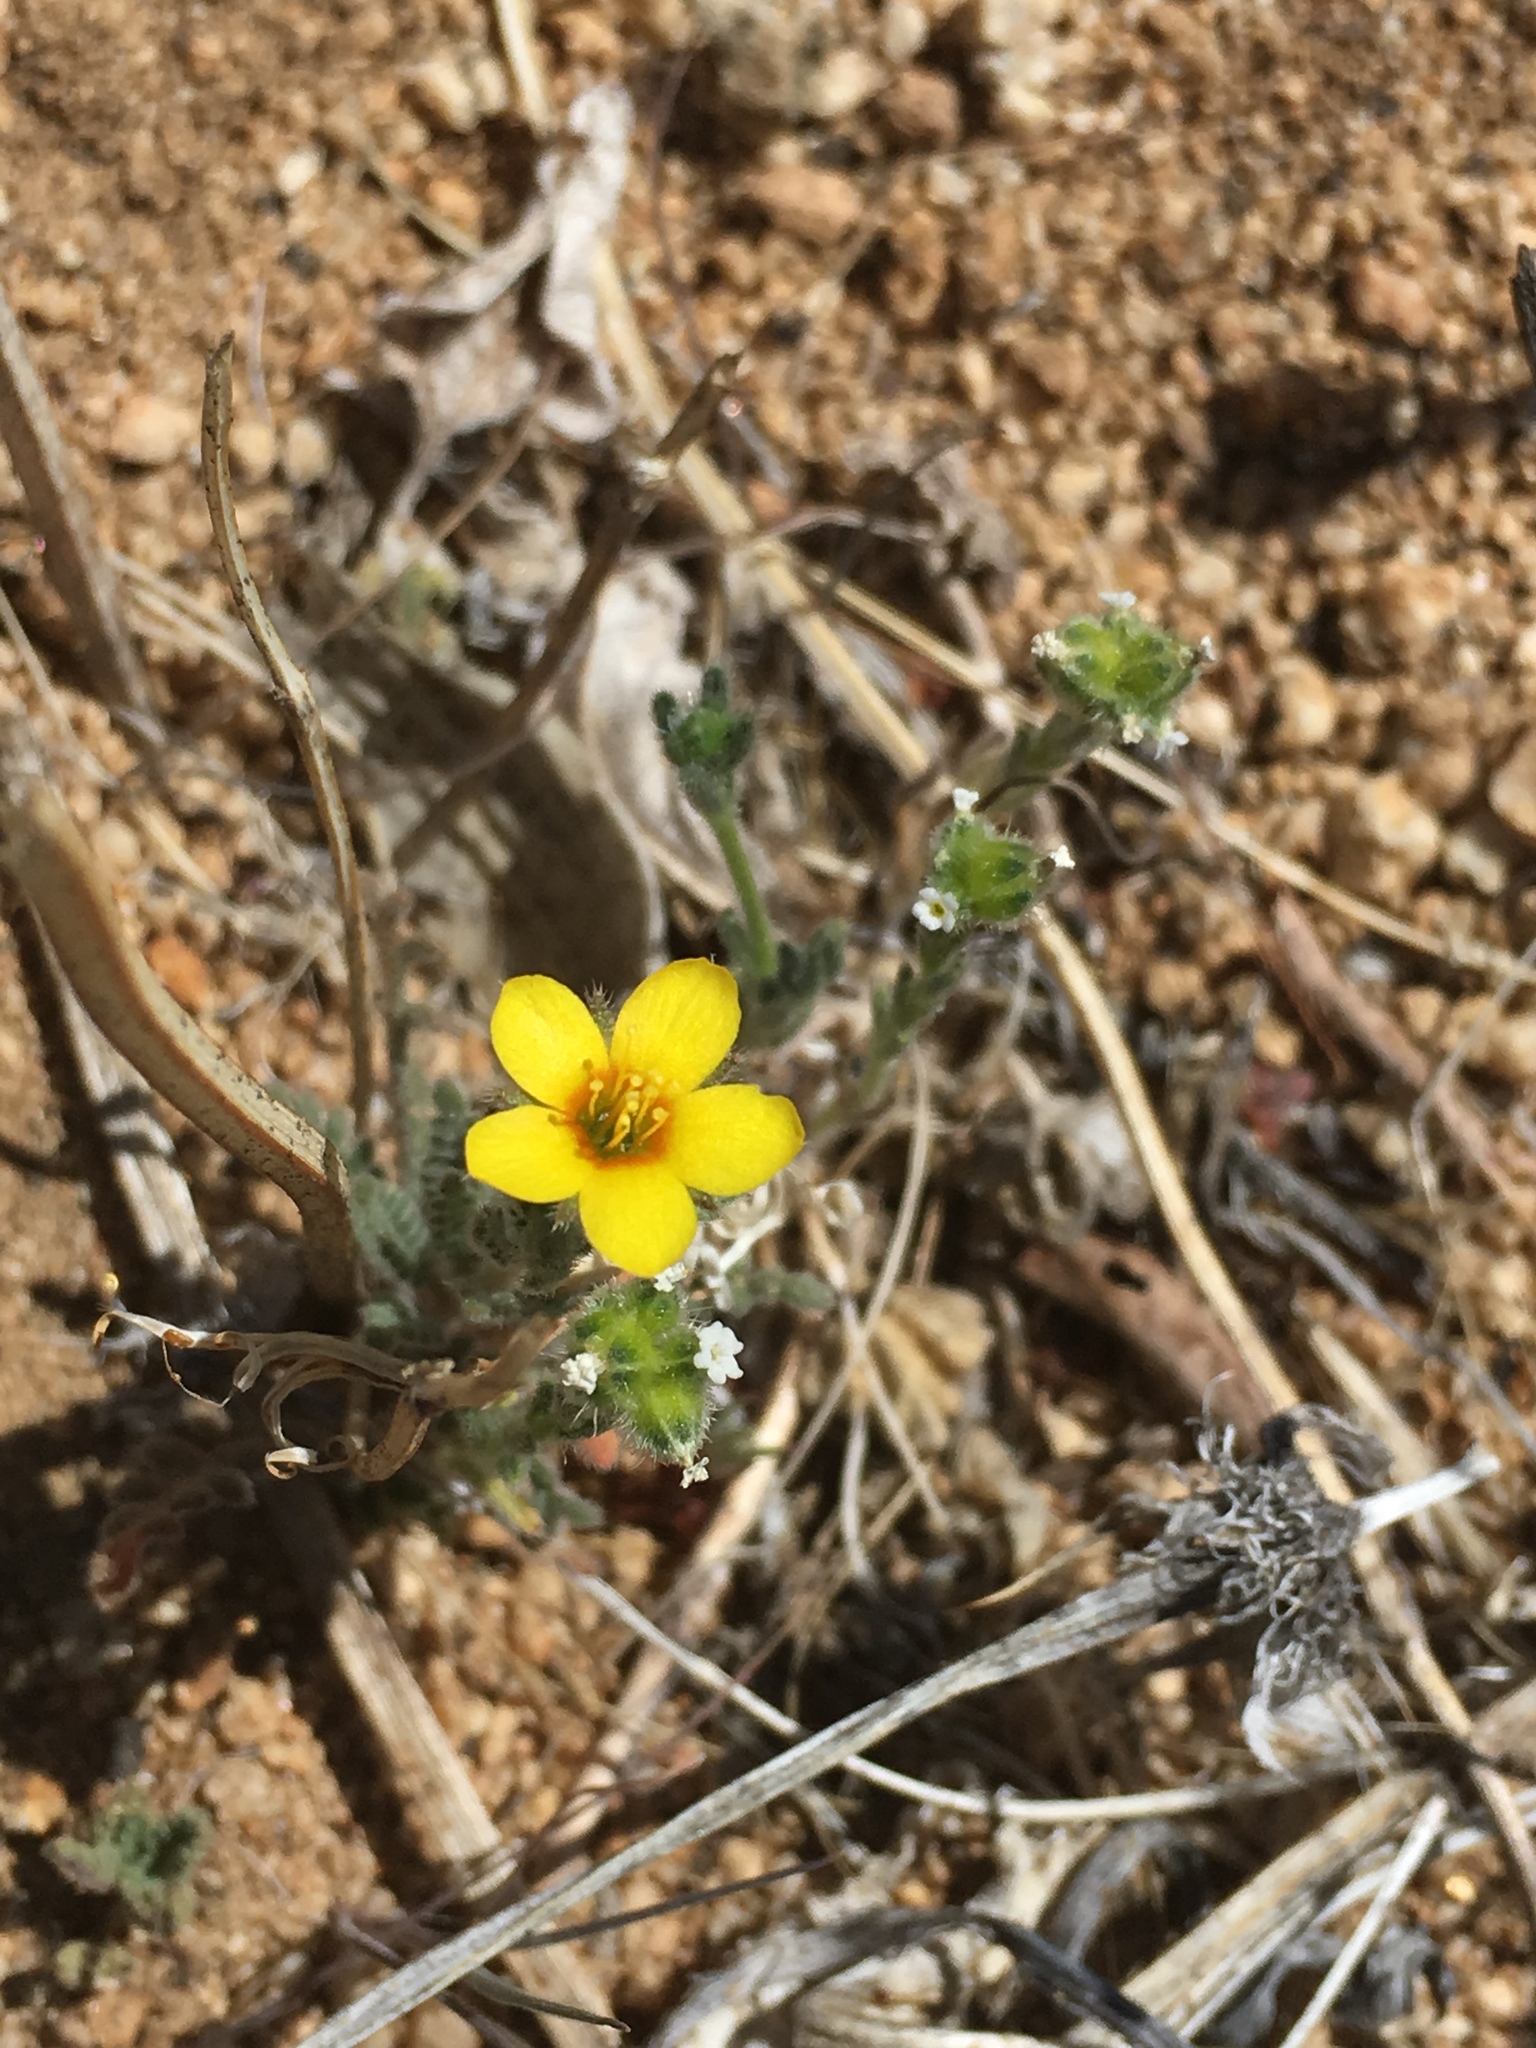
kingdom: Plantae
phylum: Tracheophyta
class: Magnoliopsida
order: Cornales
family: Loasaceae
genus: Mentzelia
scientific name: Mentzelia albicaulis
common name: White-stem blazingstar
